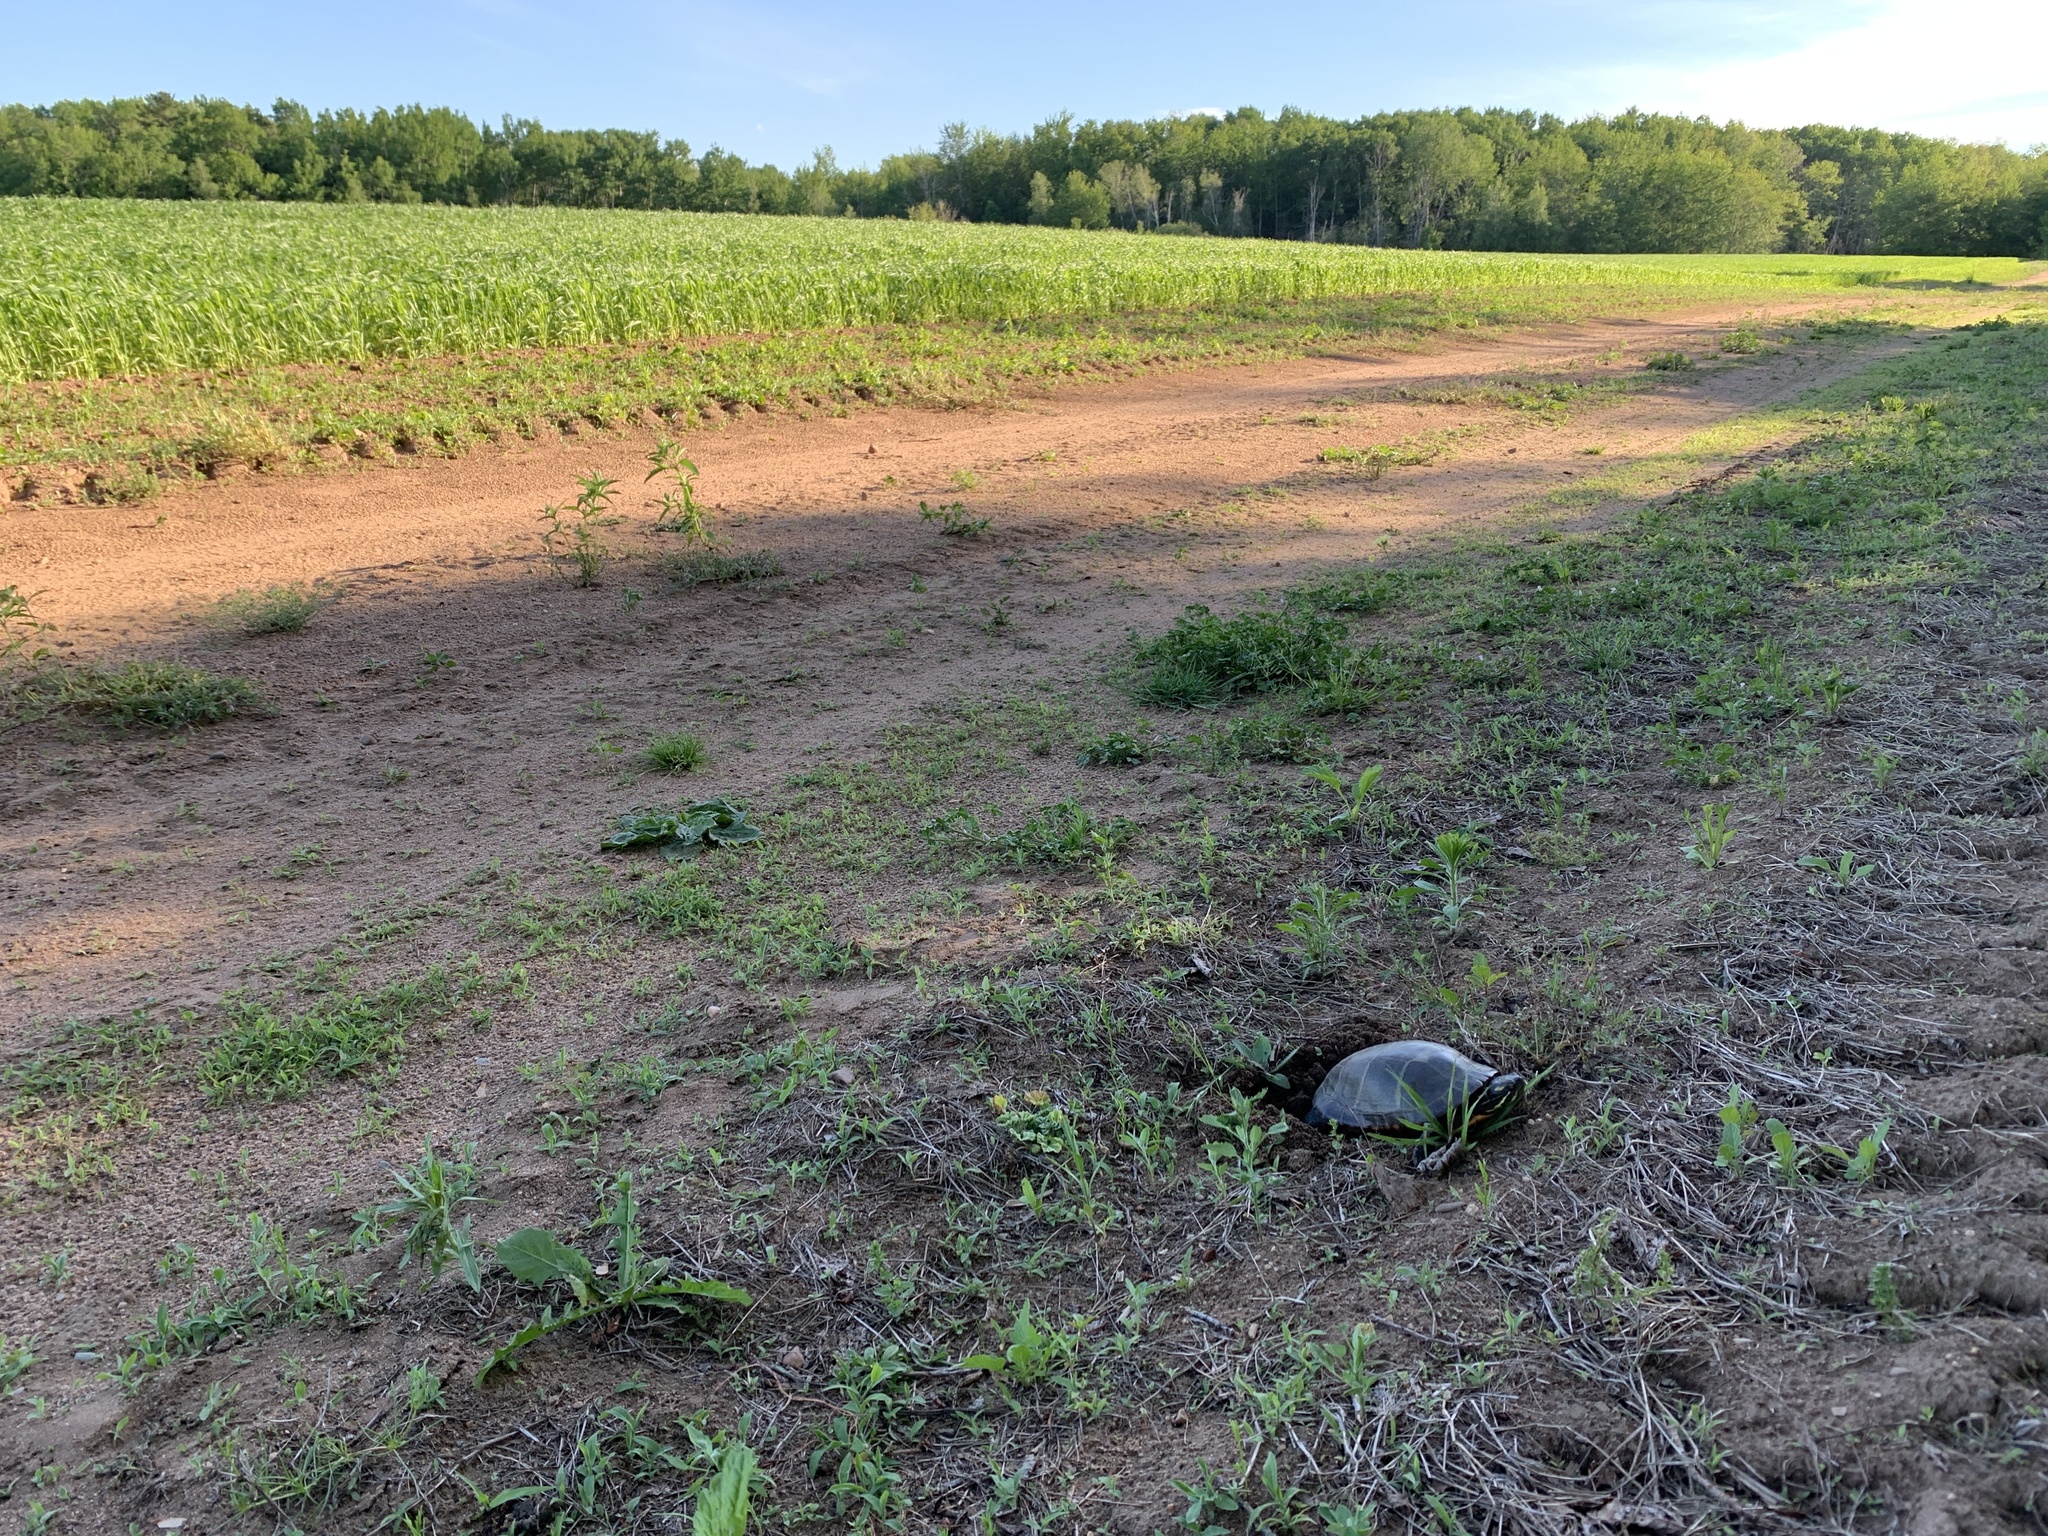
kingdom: Animalia
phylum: Chordata
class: Testudines
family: Emydidae
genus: Chrysemys
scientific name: Chrysemys picta
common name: Painted turtle
